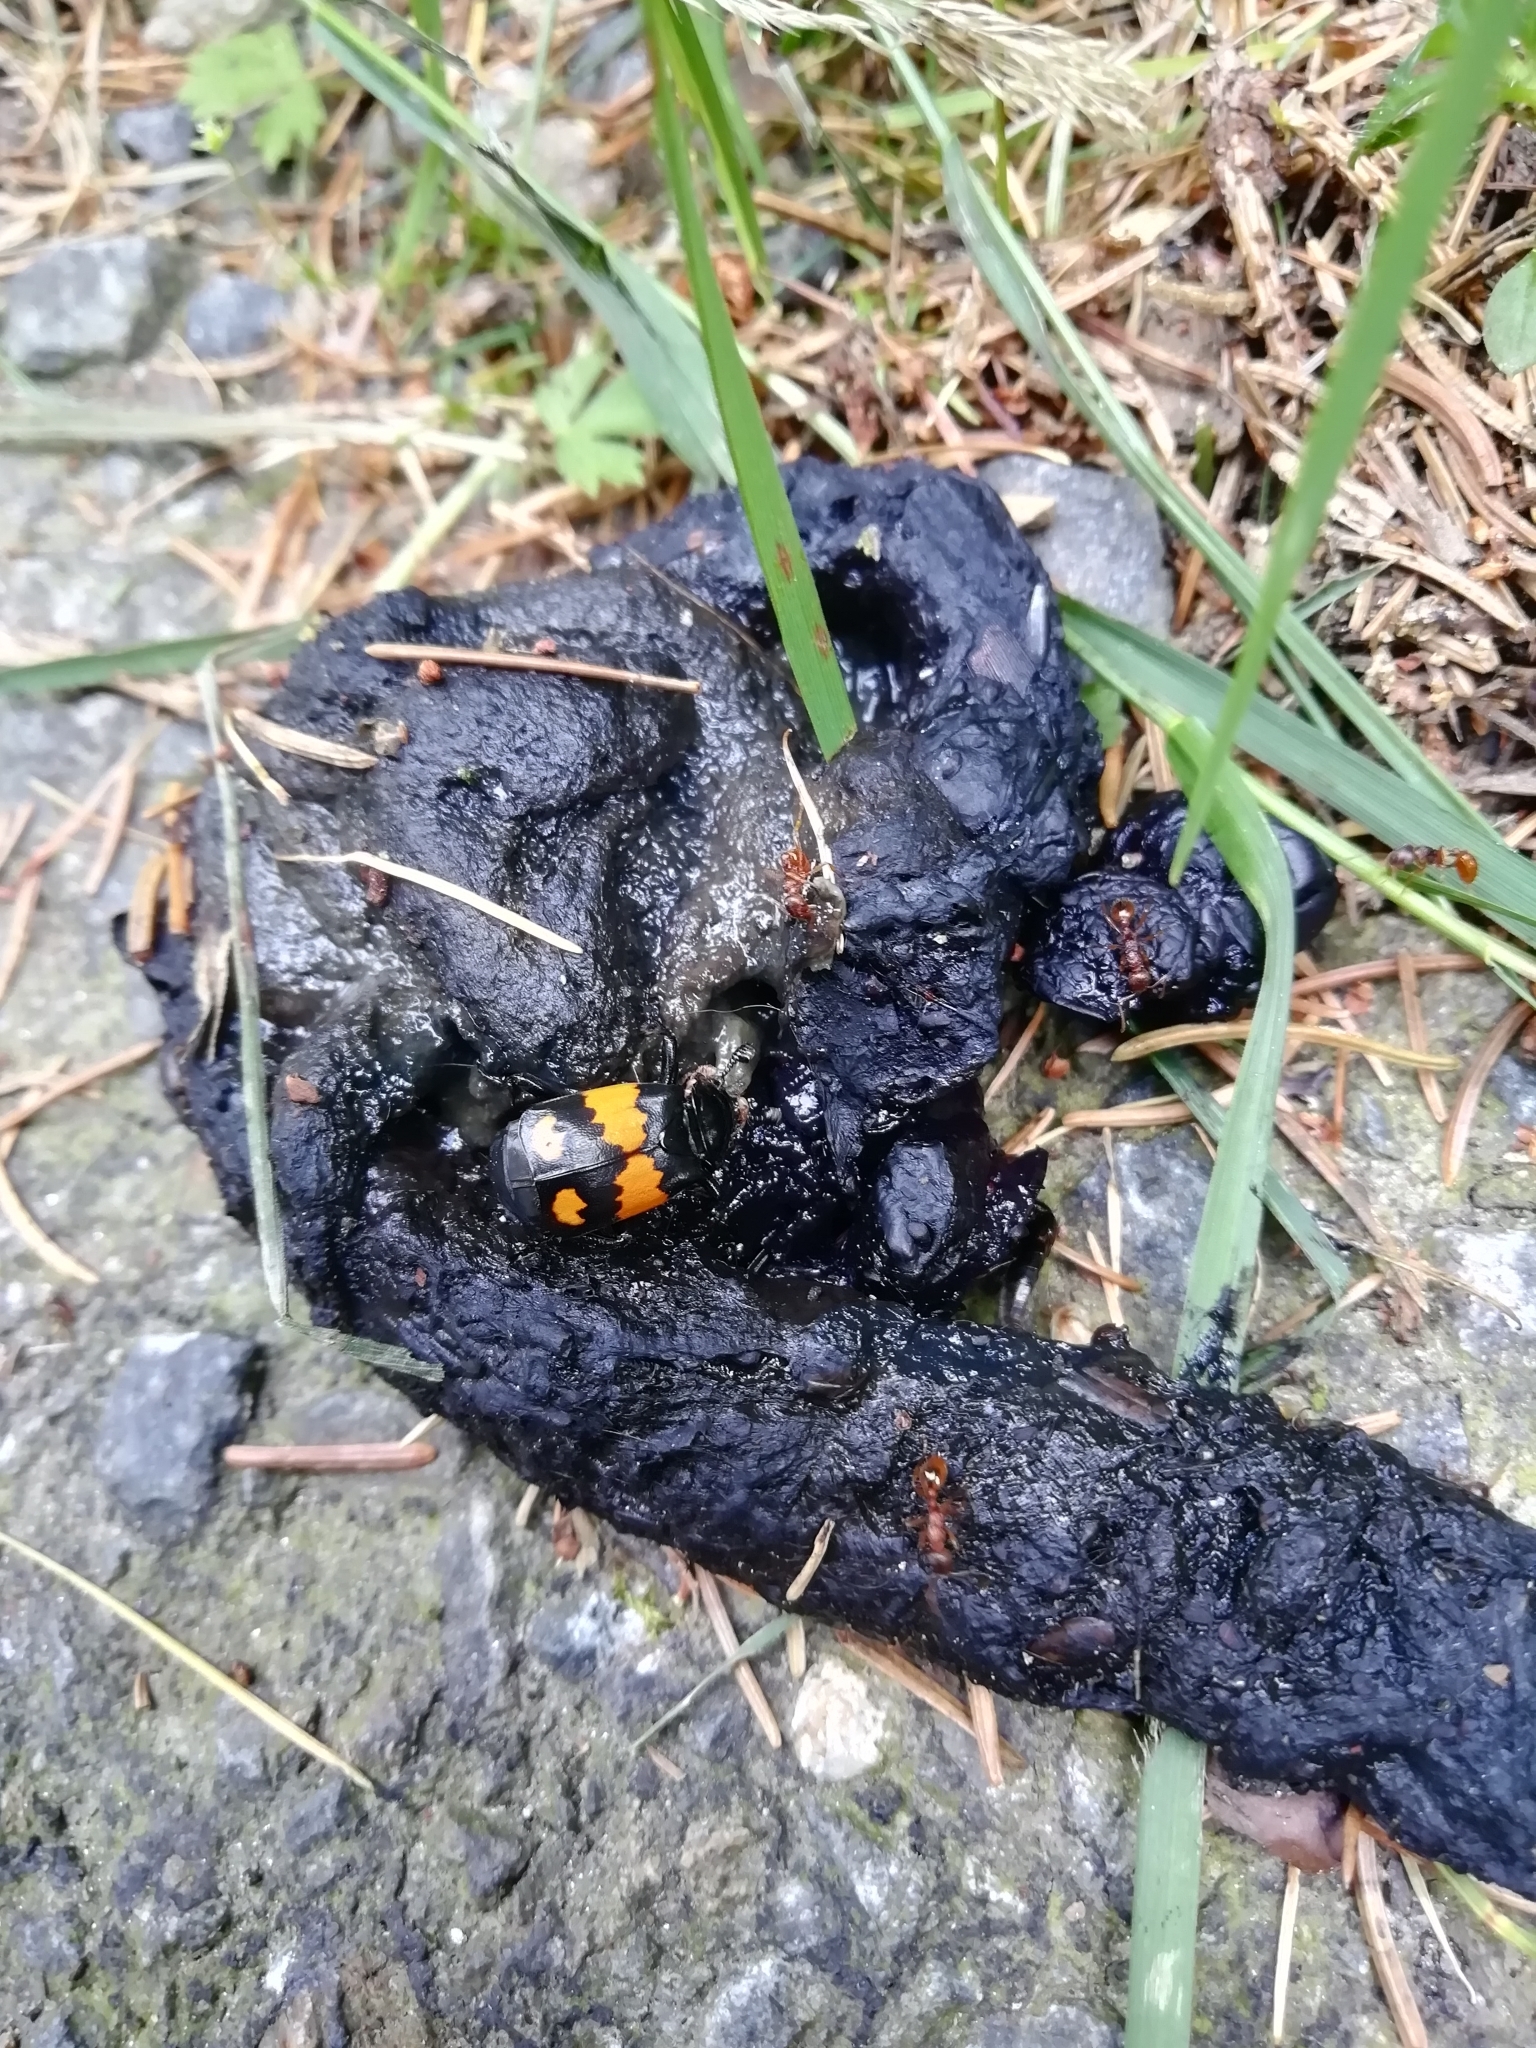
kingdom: Animalia
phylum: Arthropoda
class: Insecta
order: Coleoptera
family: Staphylinidae
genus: Nicrophorus
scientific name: Nicrophorus vespilloides
